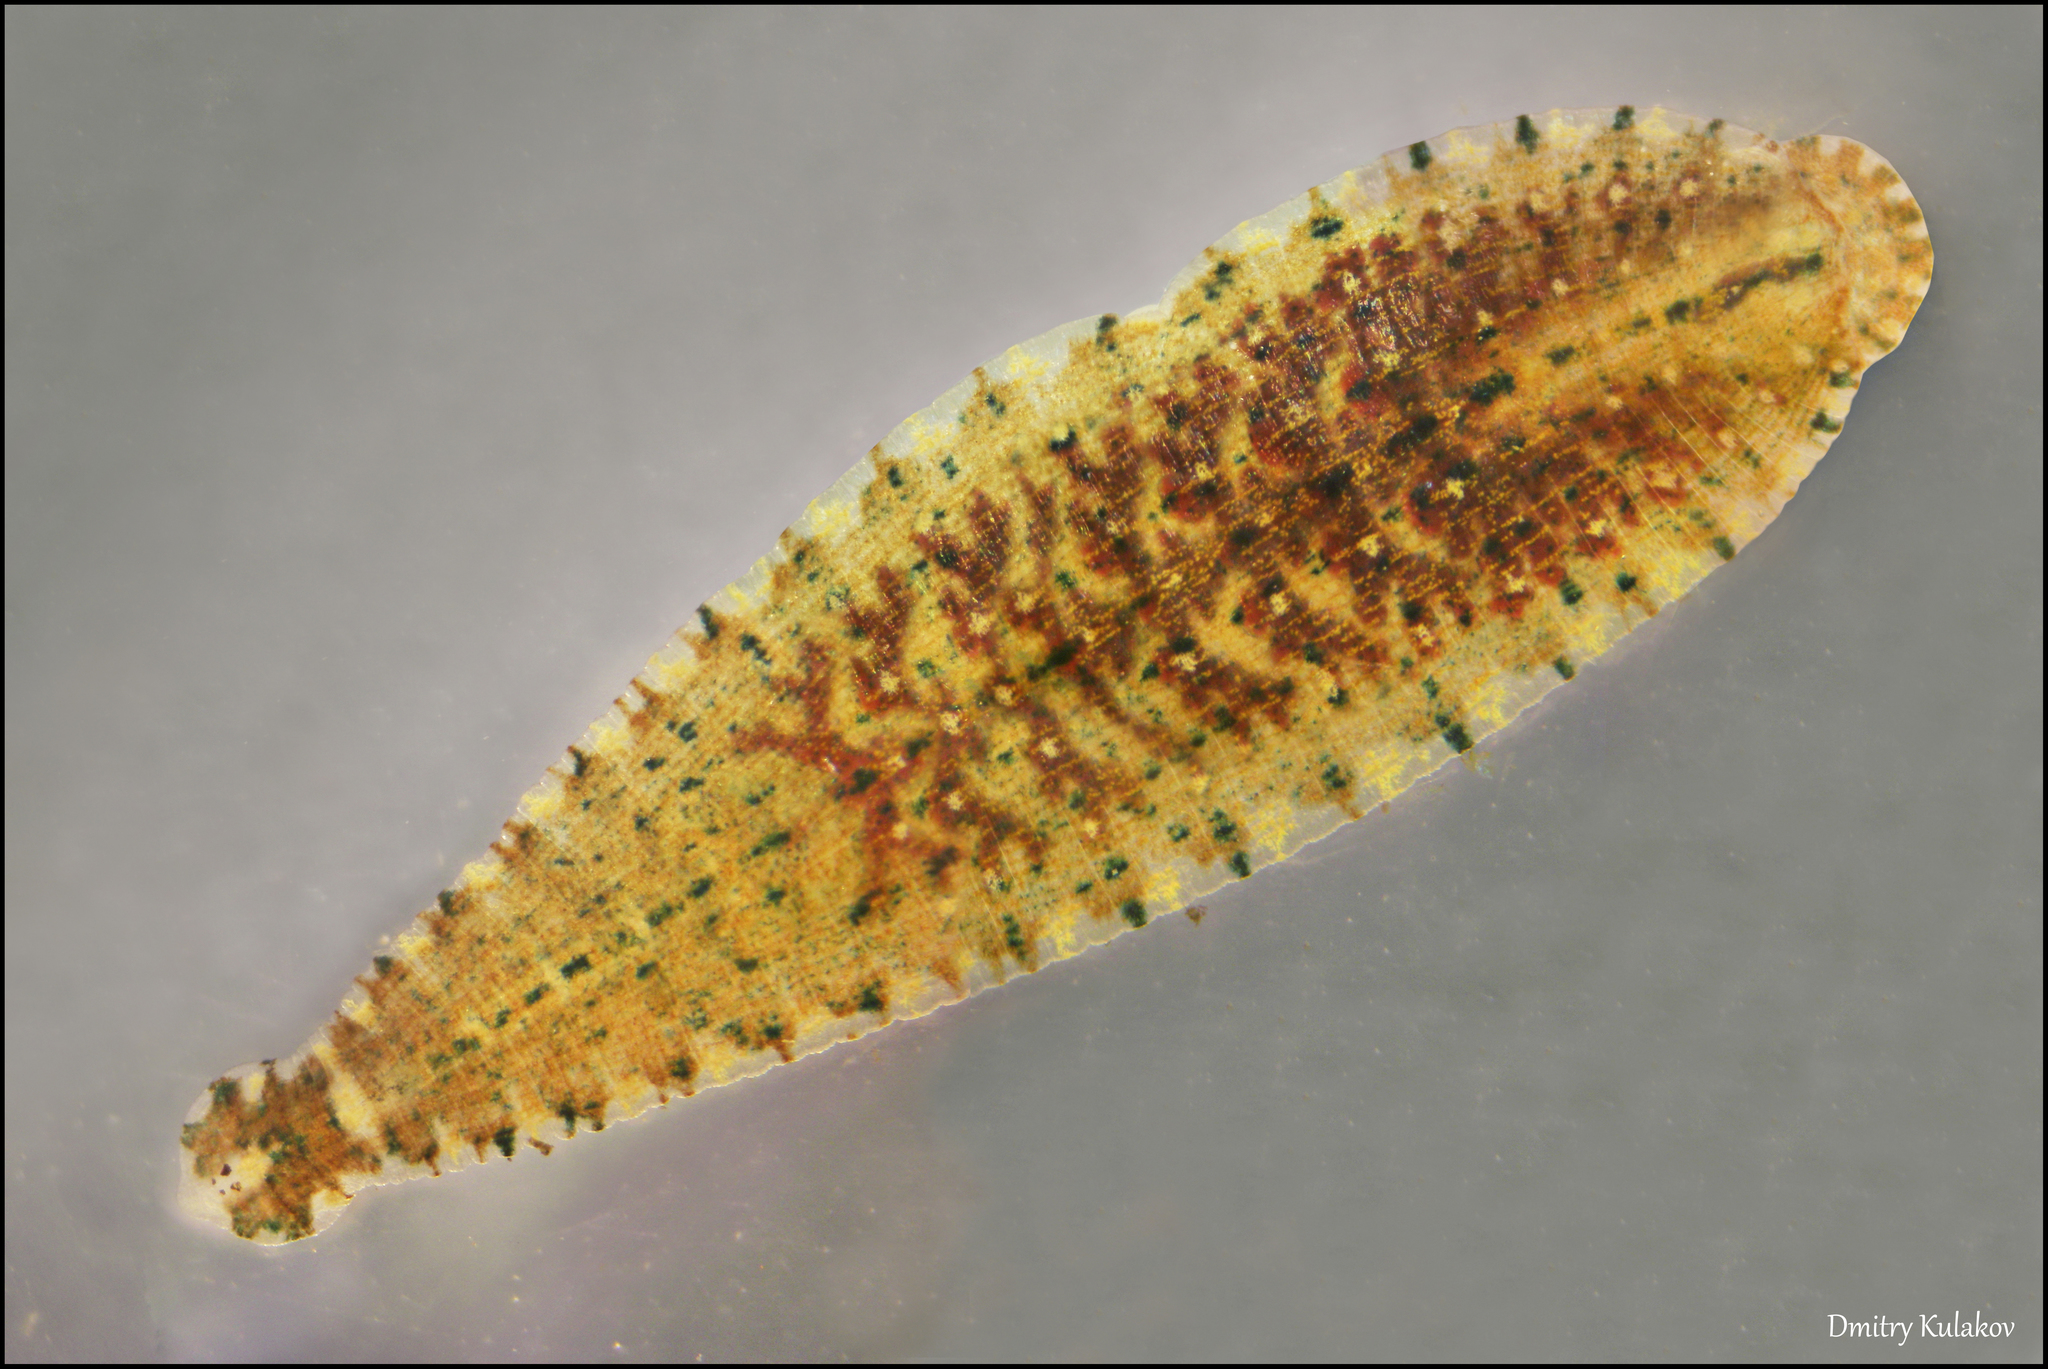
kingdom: Animalia
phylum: Annelida
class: Clitellata
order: Rhynchobdellida
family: Glossiphoniidae
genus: Hemiclepsis
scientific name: Hemiclepsis marginata
